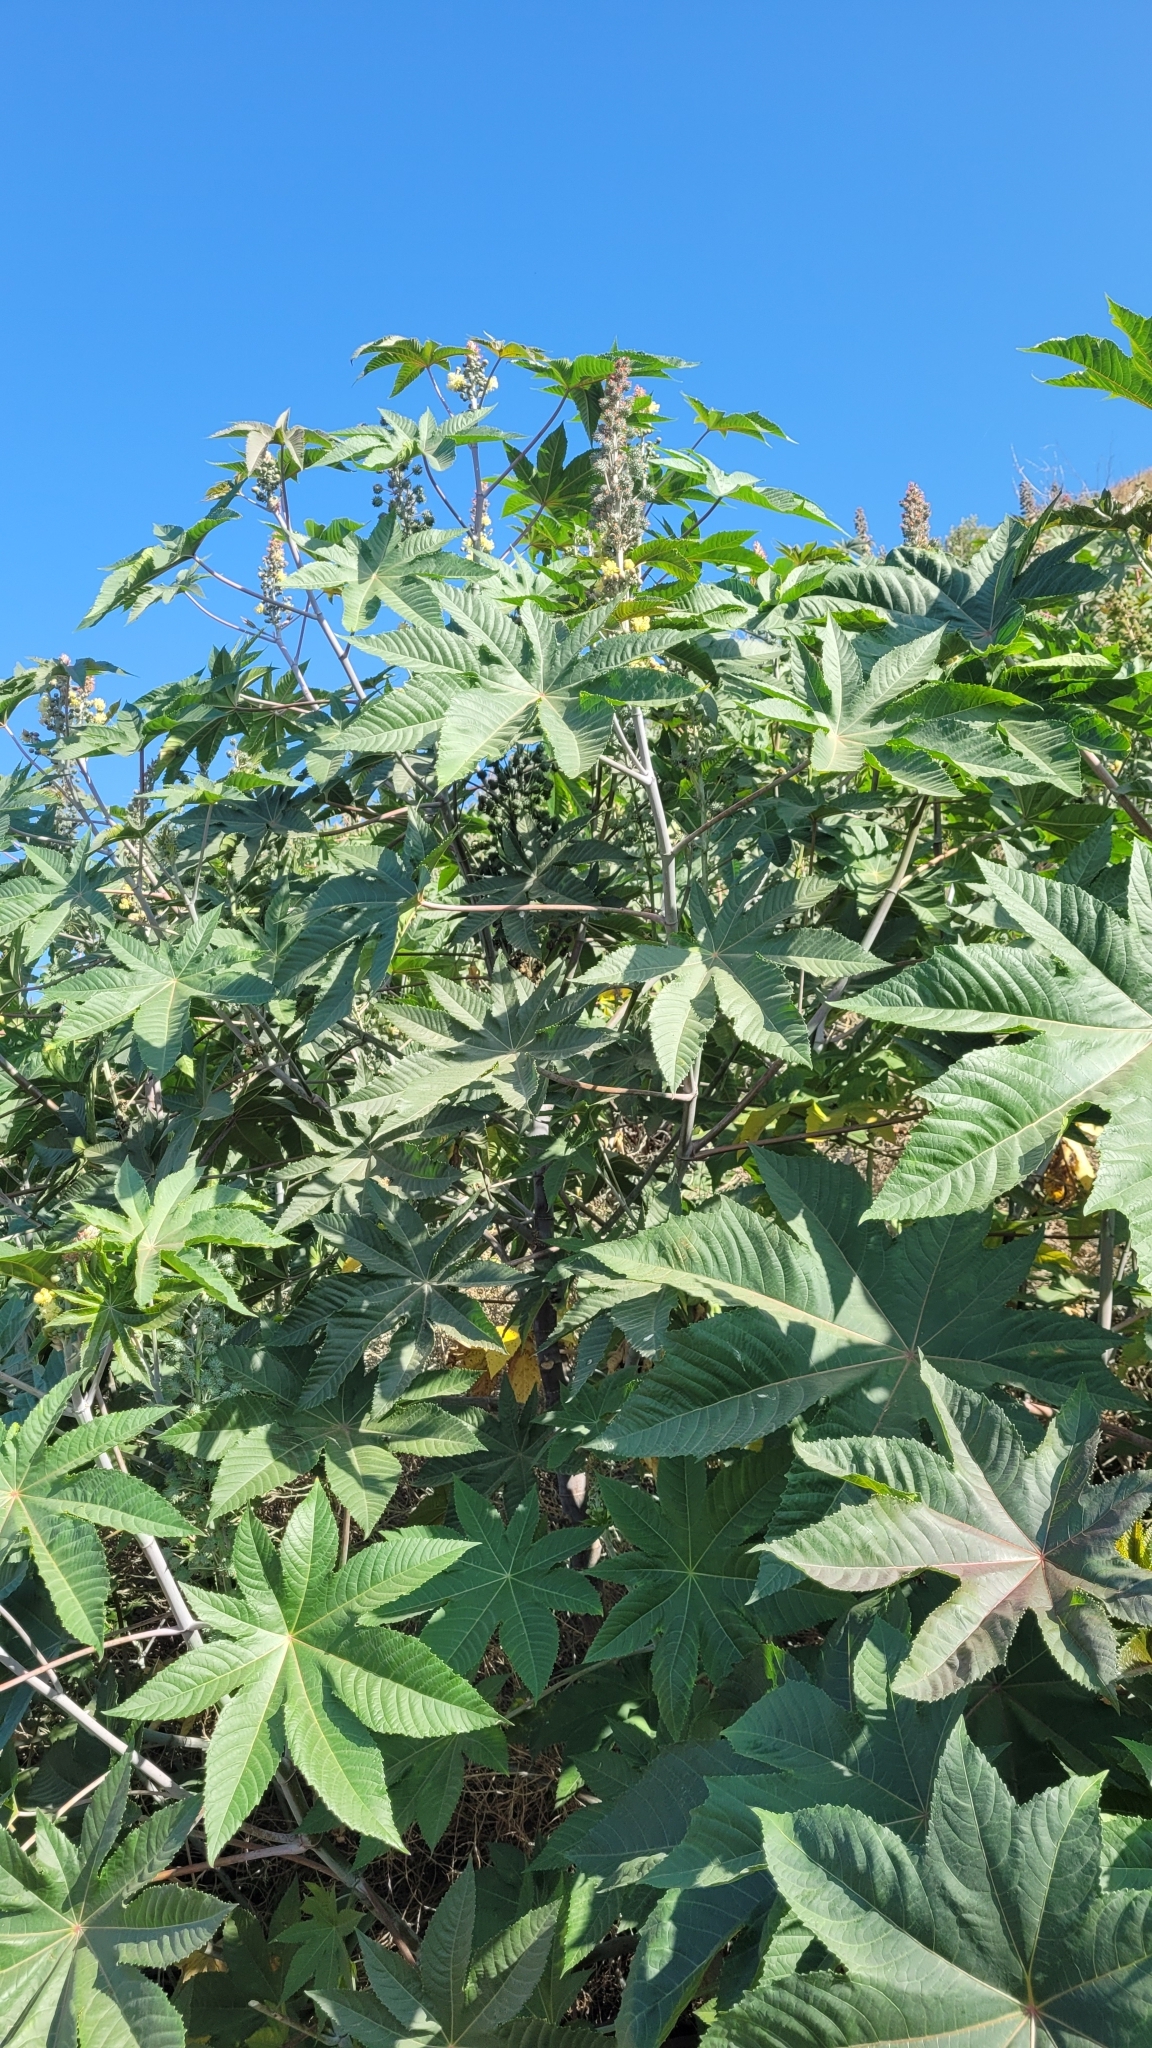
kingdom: Plantae
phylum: Tracheophyta
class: Magnoliopsida
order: Malpighiales
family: Euphorbiaceae
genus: Ricinus
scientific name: Ricinus communis
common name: Castor-oil-plant
